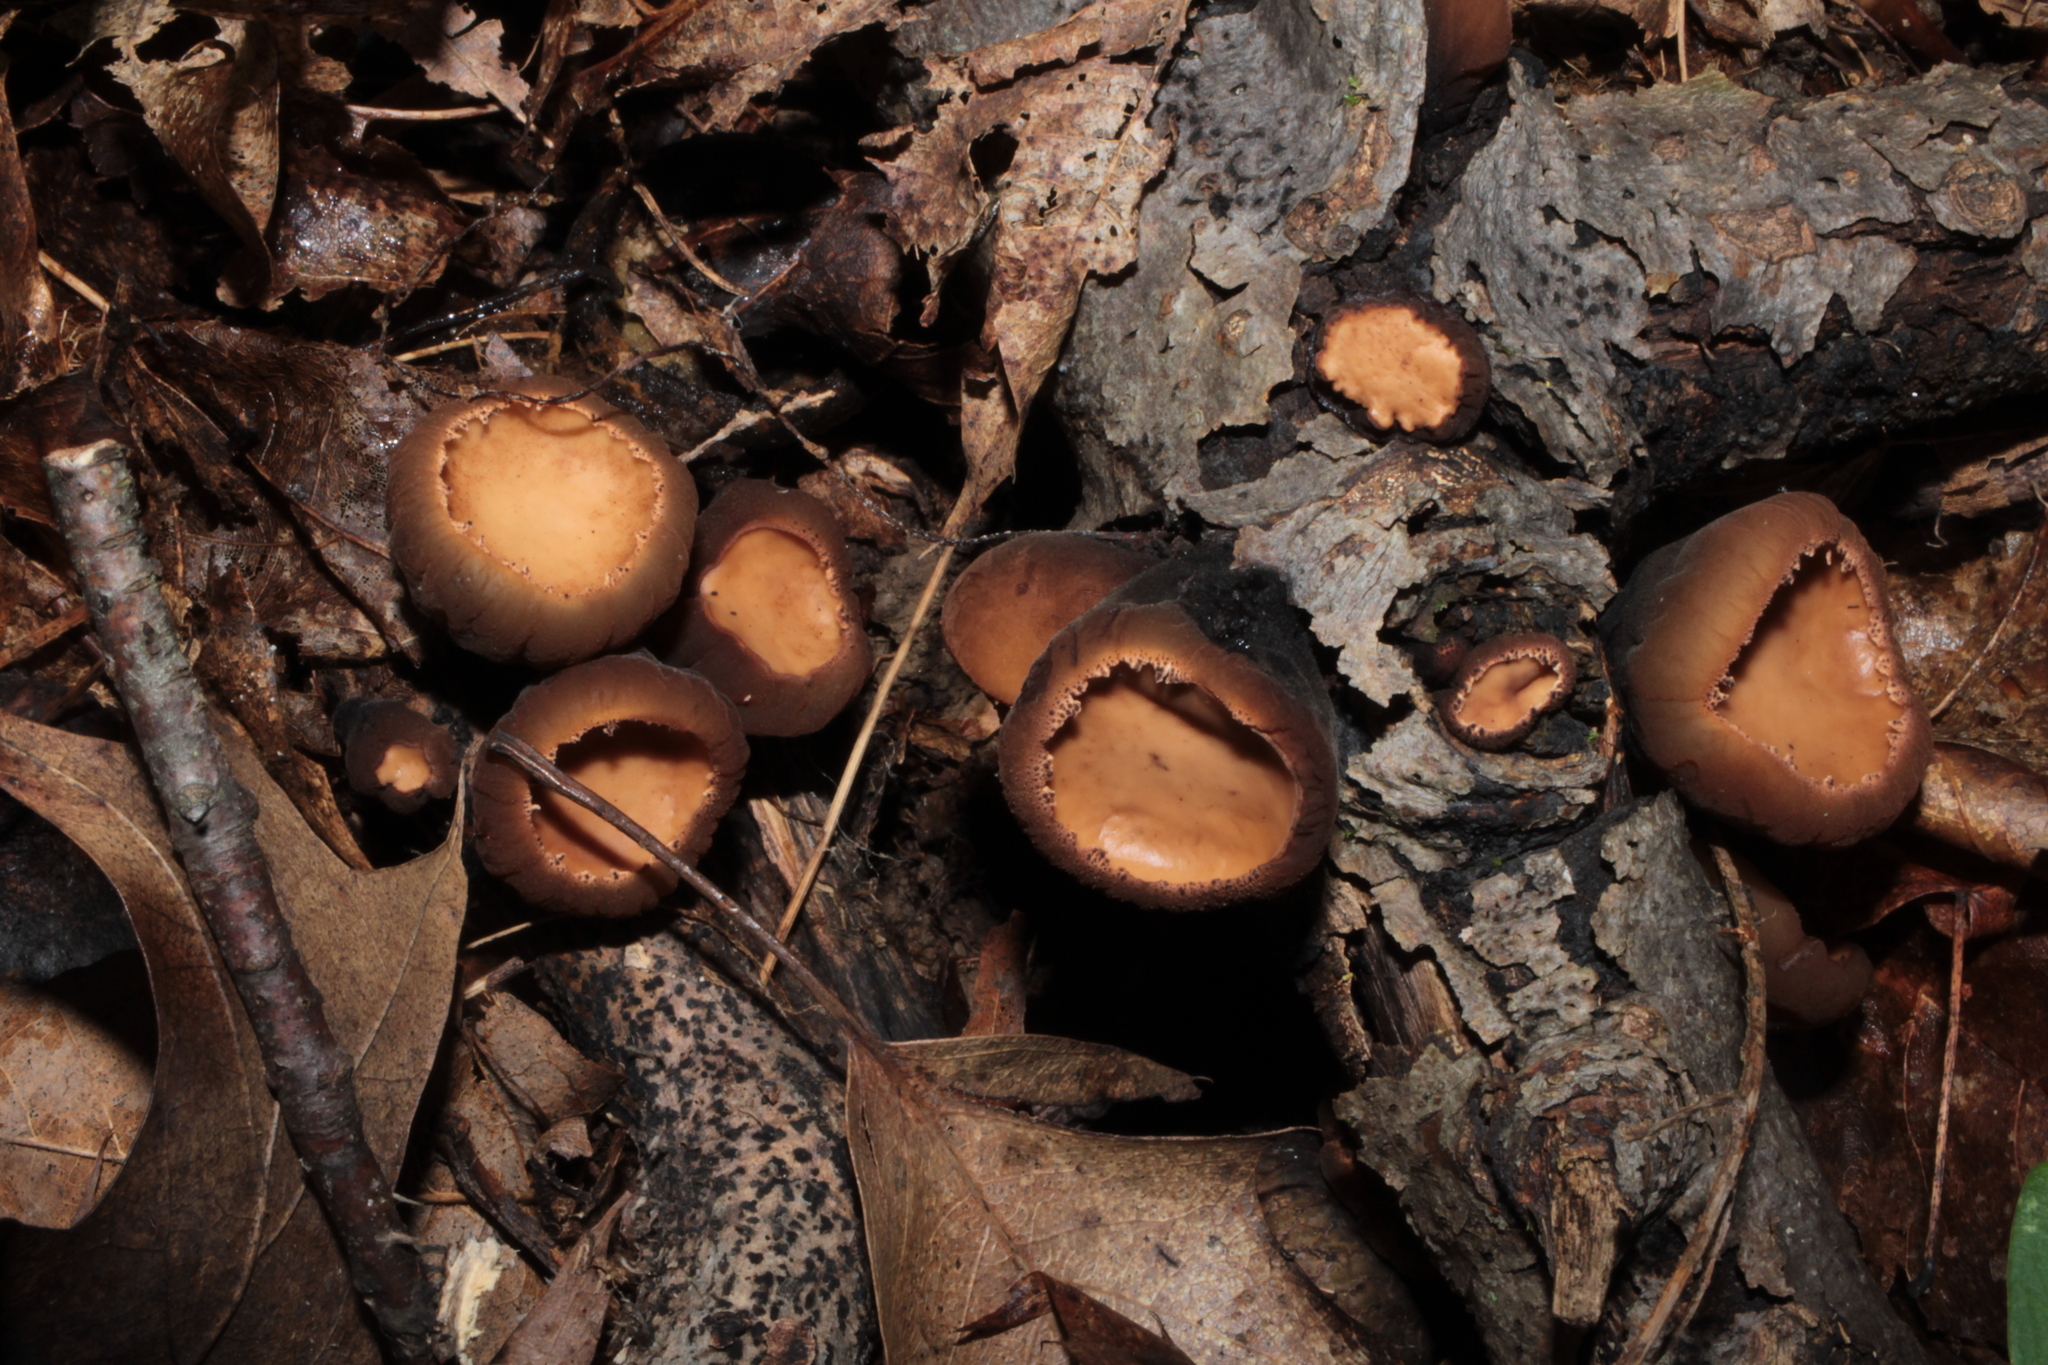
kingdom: Fungi
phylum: Ascomycota
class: Pezizomycetes
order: Pezizales
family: Sarcosomataceae
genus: Galiella
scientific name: Galiella rufa
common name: Hairy rubber cup
